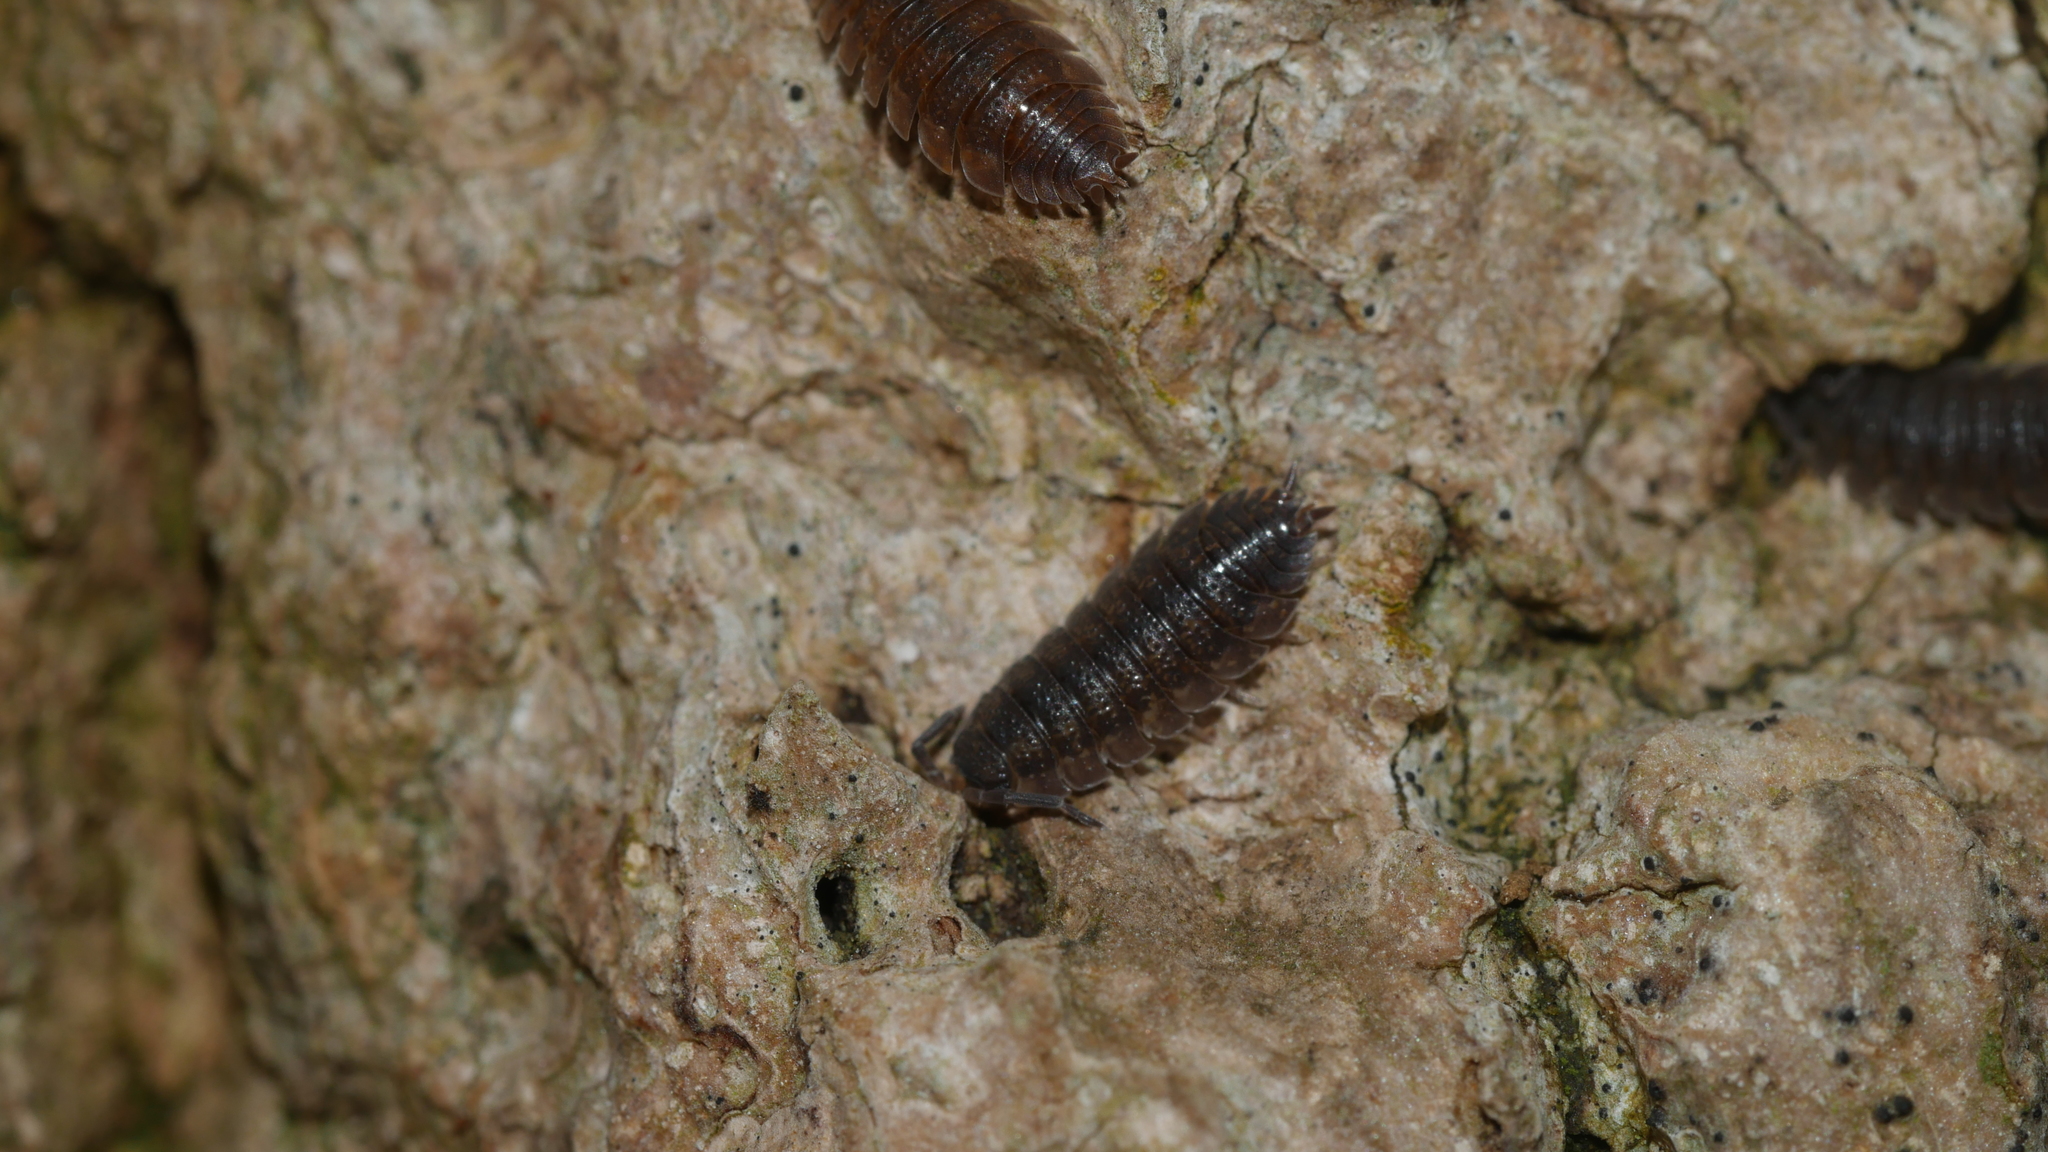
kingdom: Animalia
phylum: Arthropoda
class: Malacostraca
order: Isopoda
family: Porcellionidae
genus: Porcellio
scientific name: Porcellio scaber
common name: Common rough woodlouse
